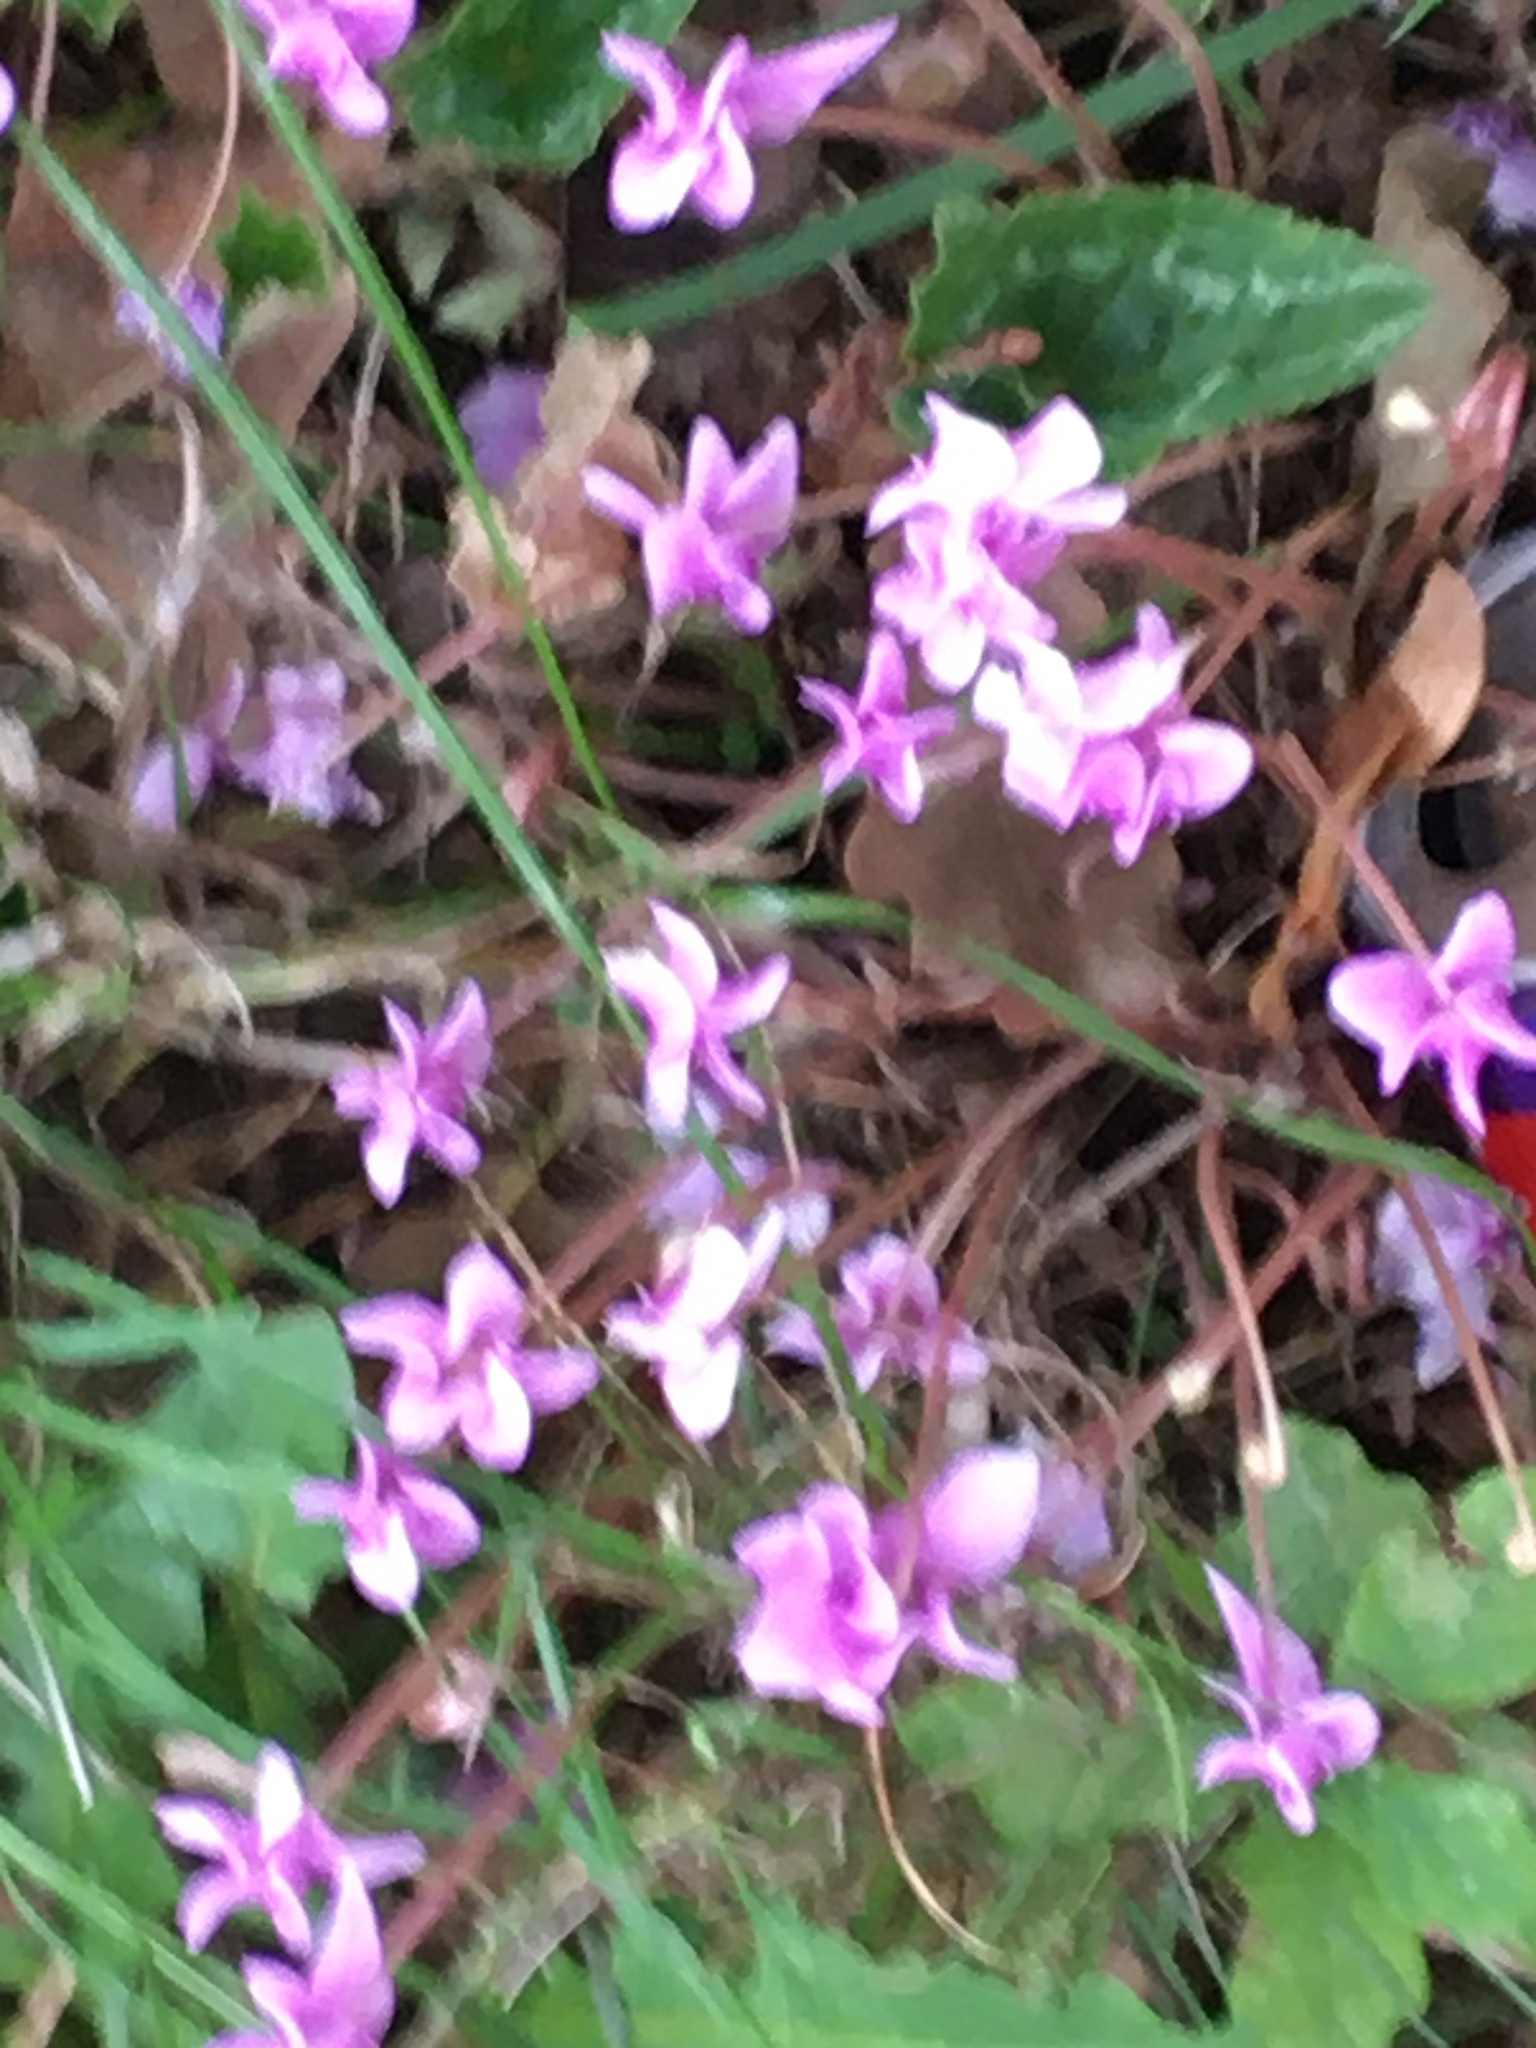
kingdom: Plantae
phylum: Tracheophyta
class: Magnoliopsida
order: Ericales
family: Primulaceae
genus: Cyclamen
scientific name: Cyclamen hederifolium
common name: Sowbread
